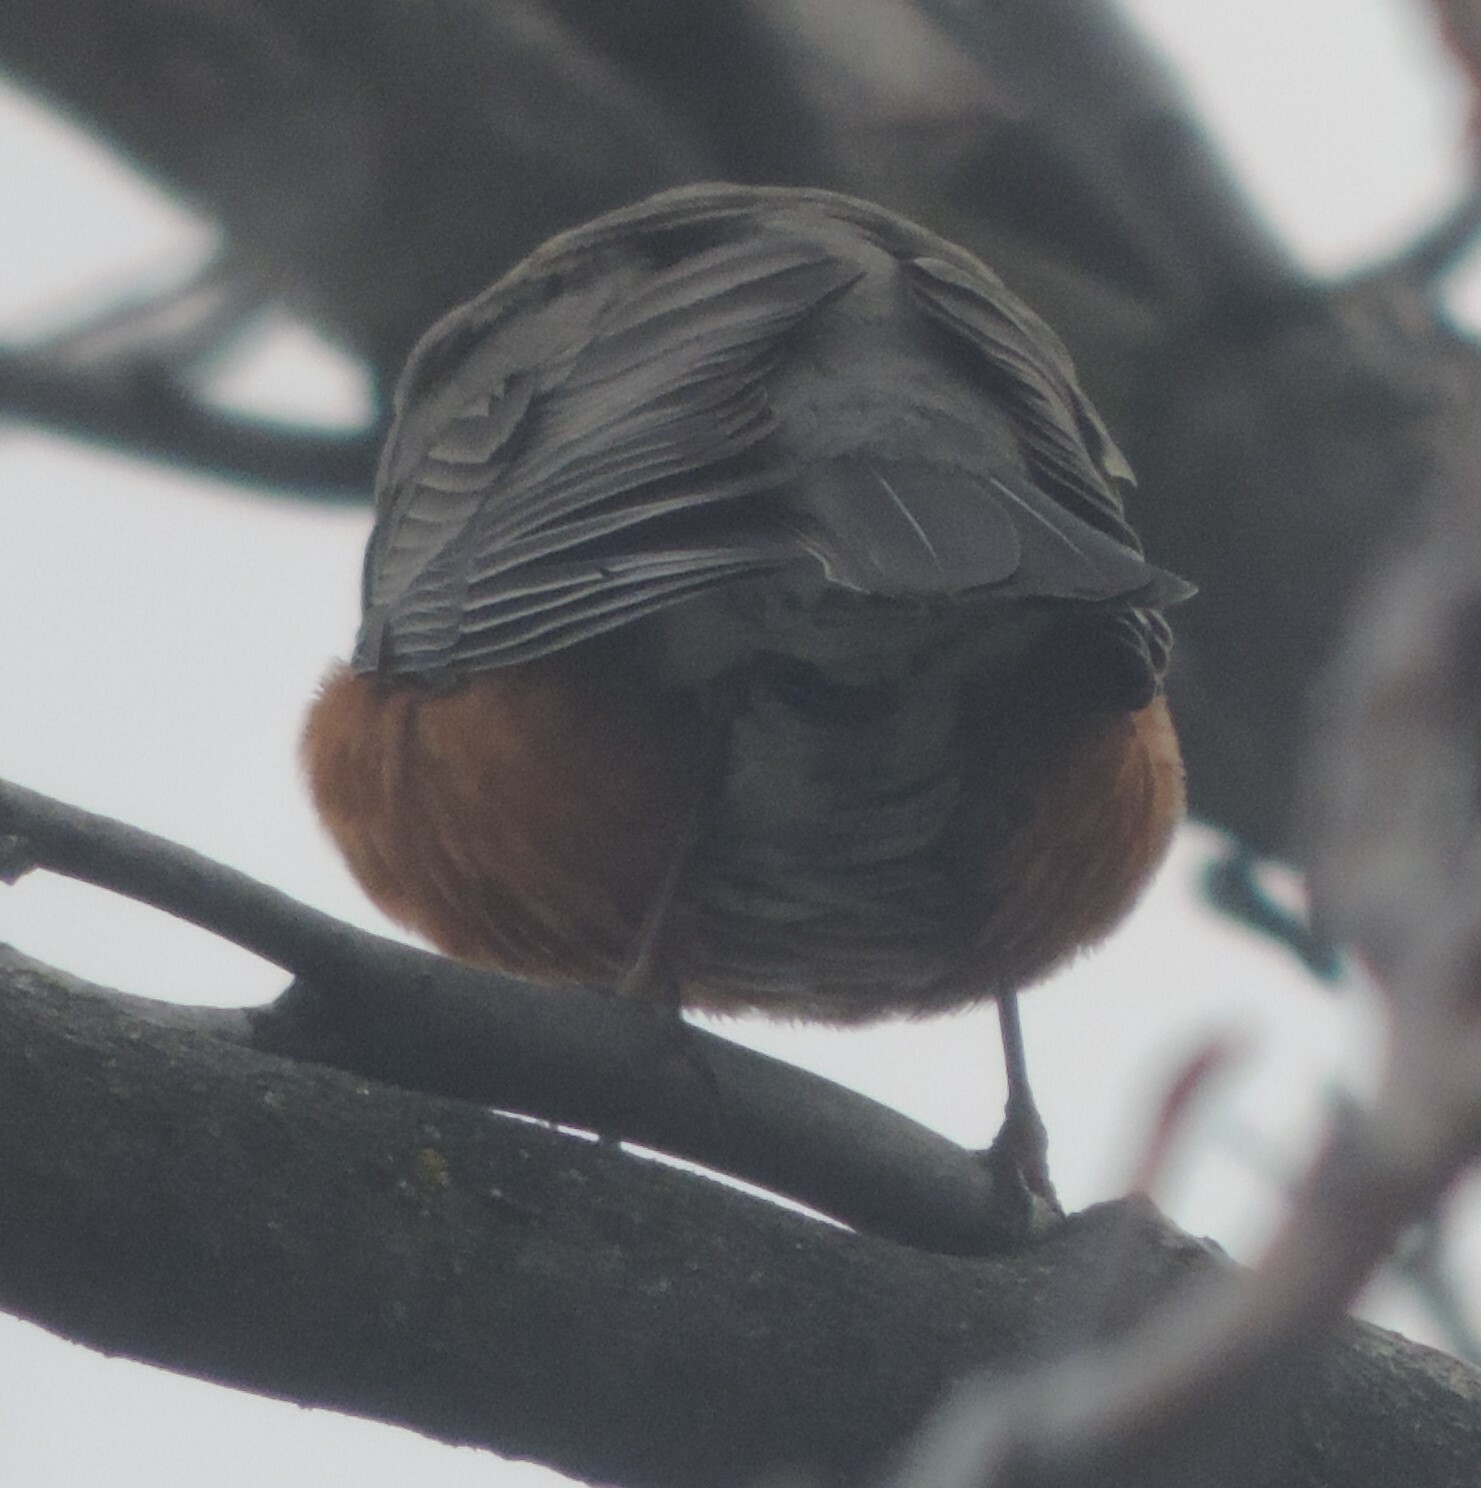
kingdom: Animalia
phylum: Chordata
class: Aves
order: Passeriformes
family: Turdidae
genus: Turdus
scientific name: Turdus migratorius
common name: American robin
